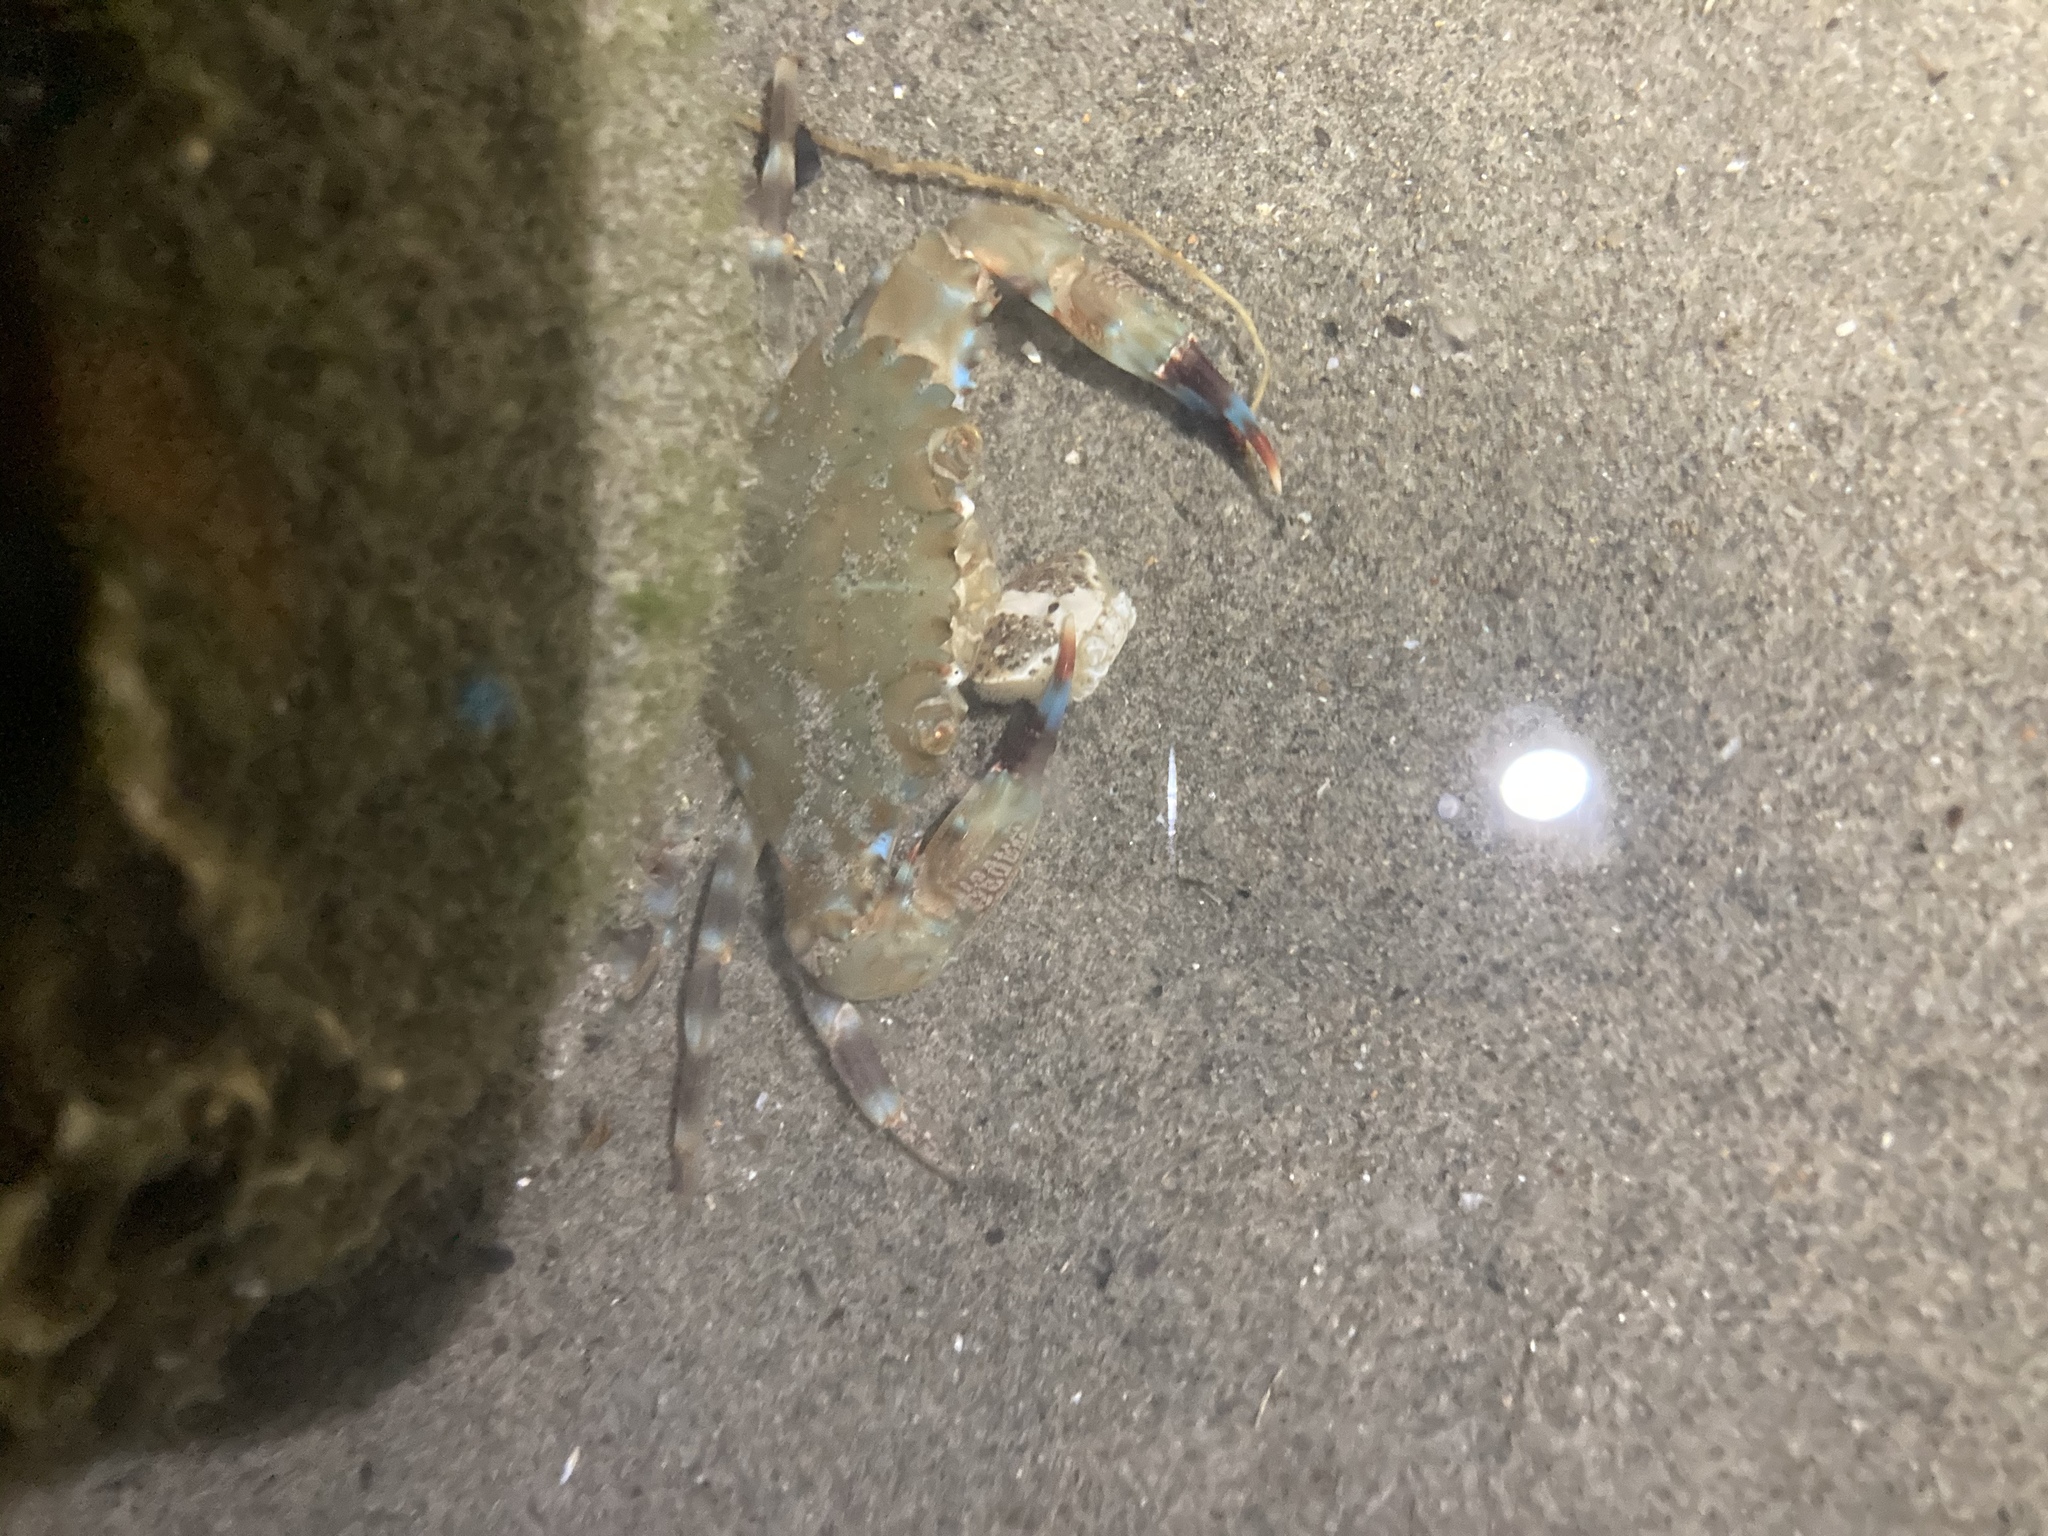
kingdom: Animalia
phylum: Arthropoda
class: Malacostraca
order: Decapoda
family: Portunidae
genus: Charybdis
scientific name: Charybdis annulata
